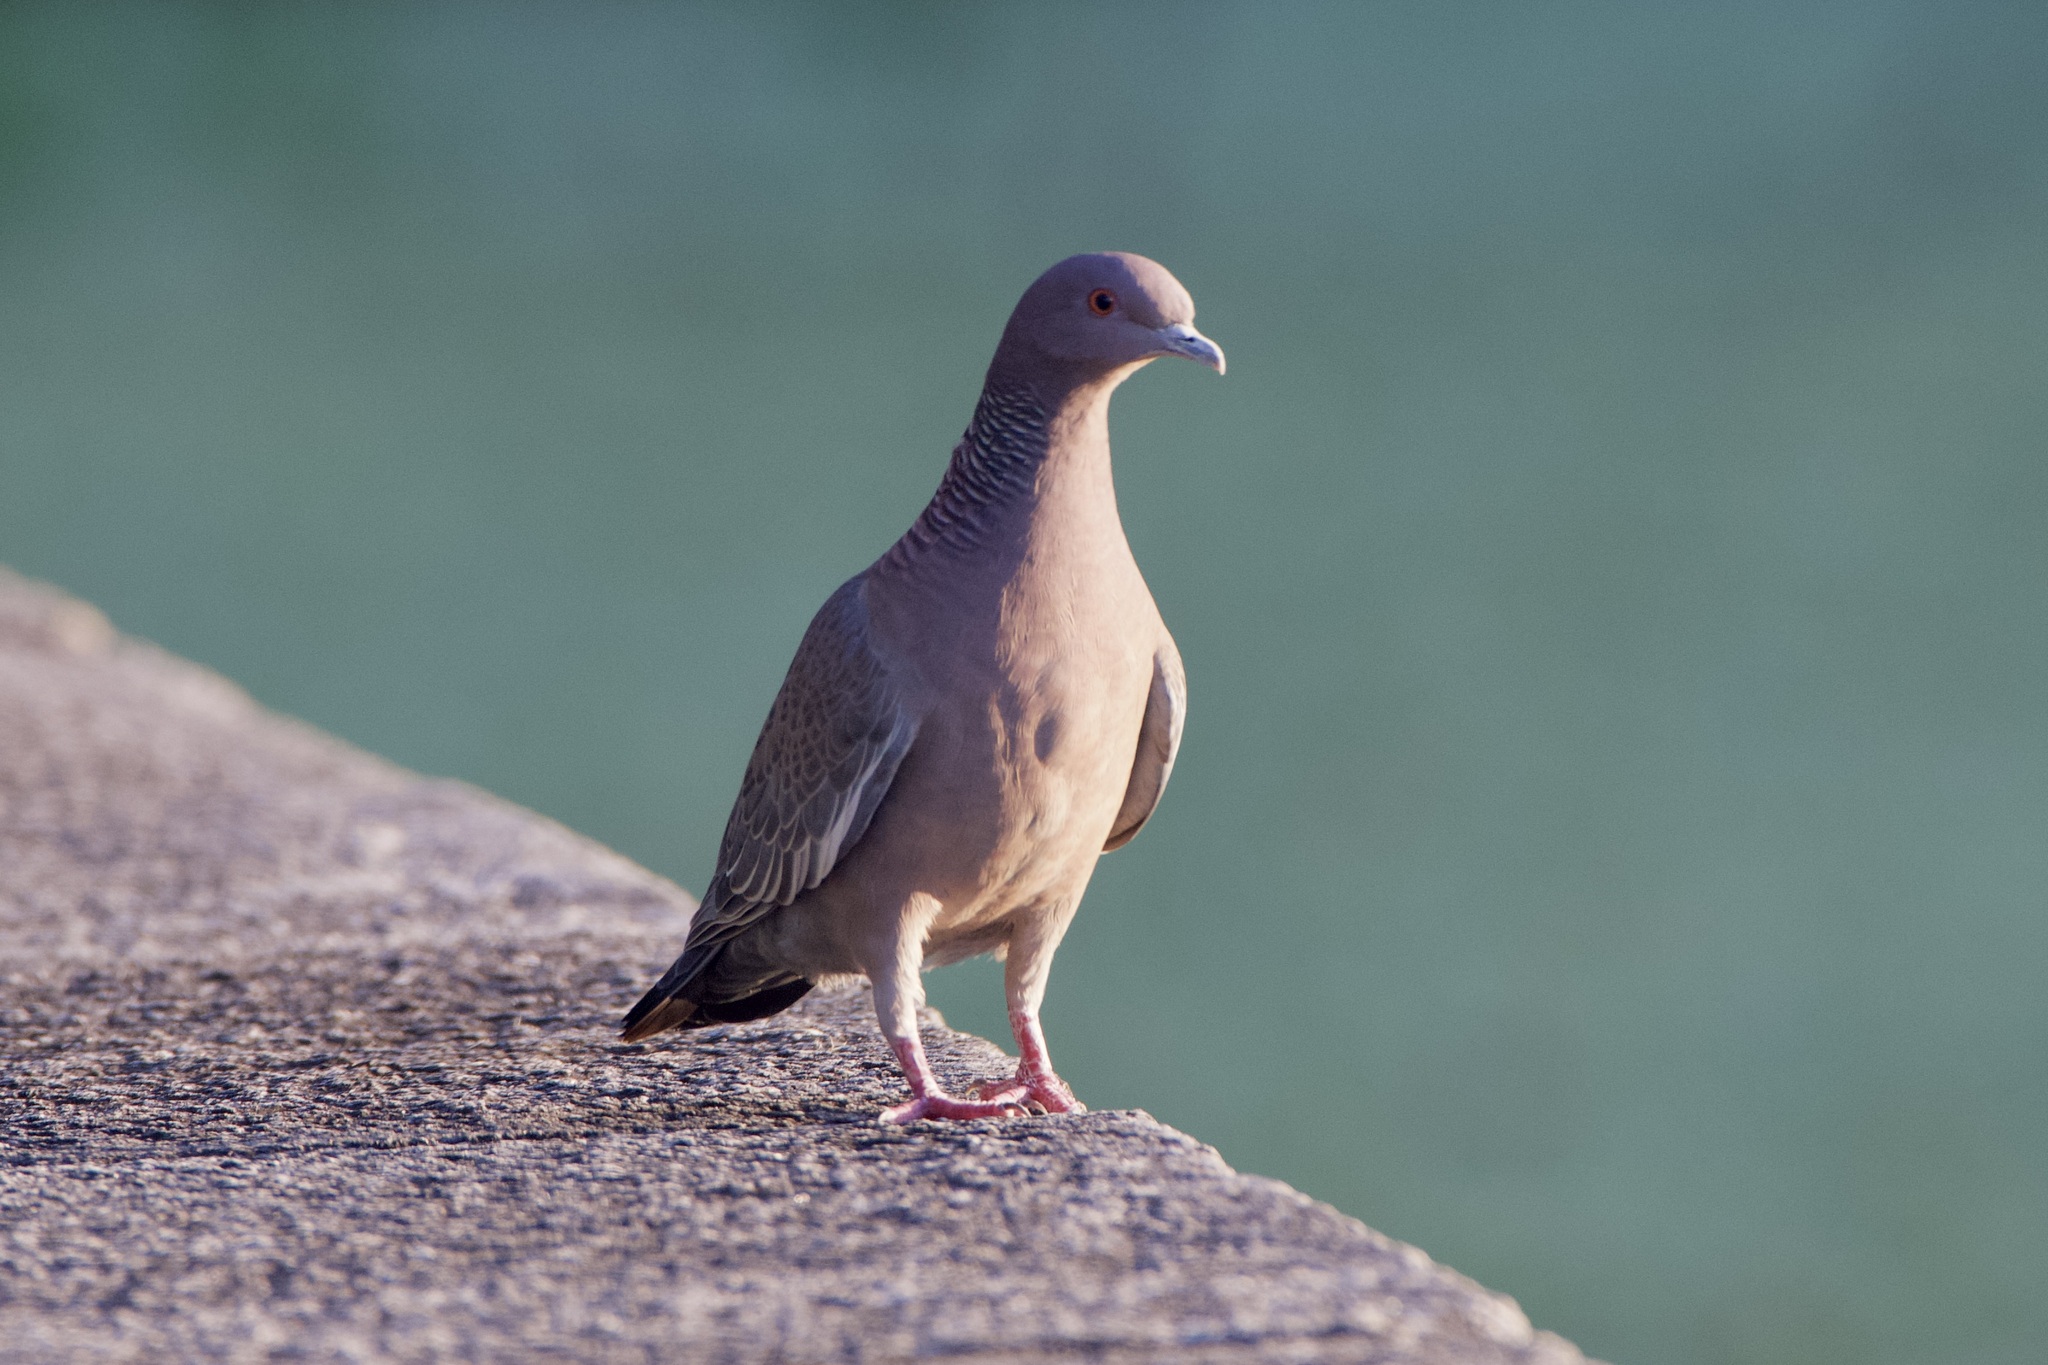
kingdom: Animalia
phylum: Chordata
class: Aves
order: Columbiformes
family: Columbidae
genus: Patagioenas
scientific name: Patagioenas picazuro
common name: Picazuro pigeon
